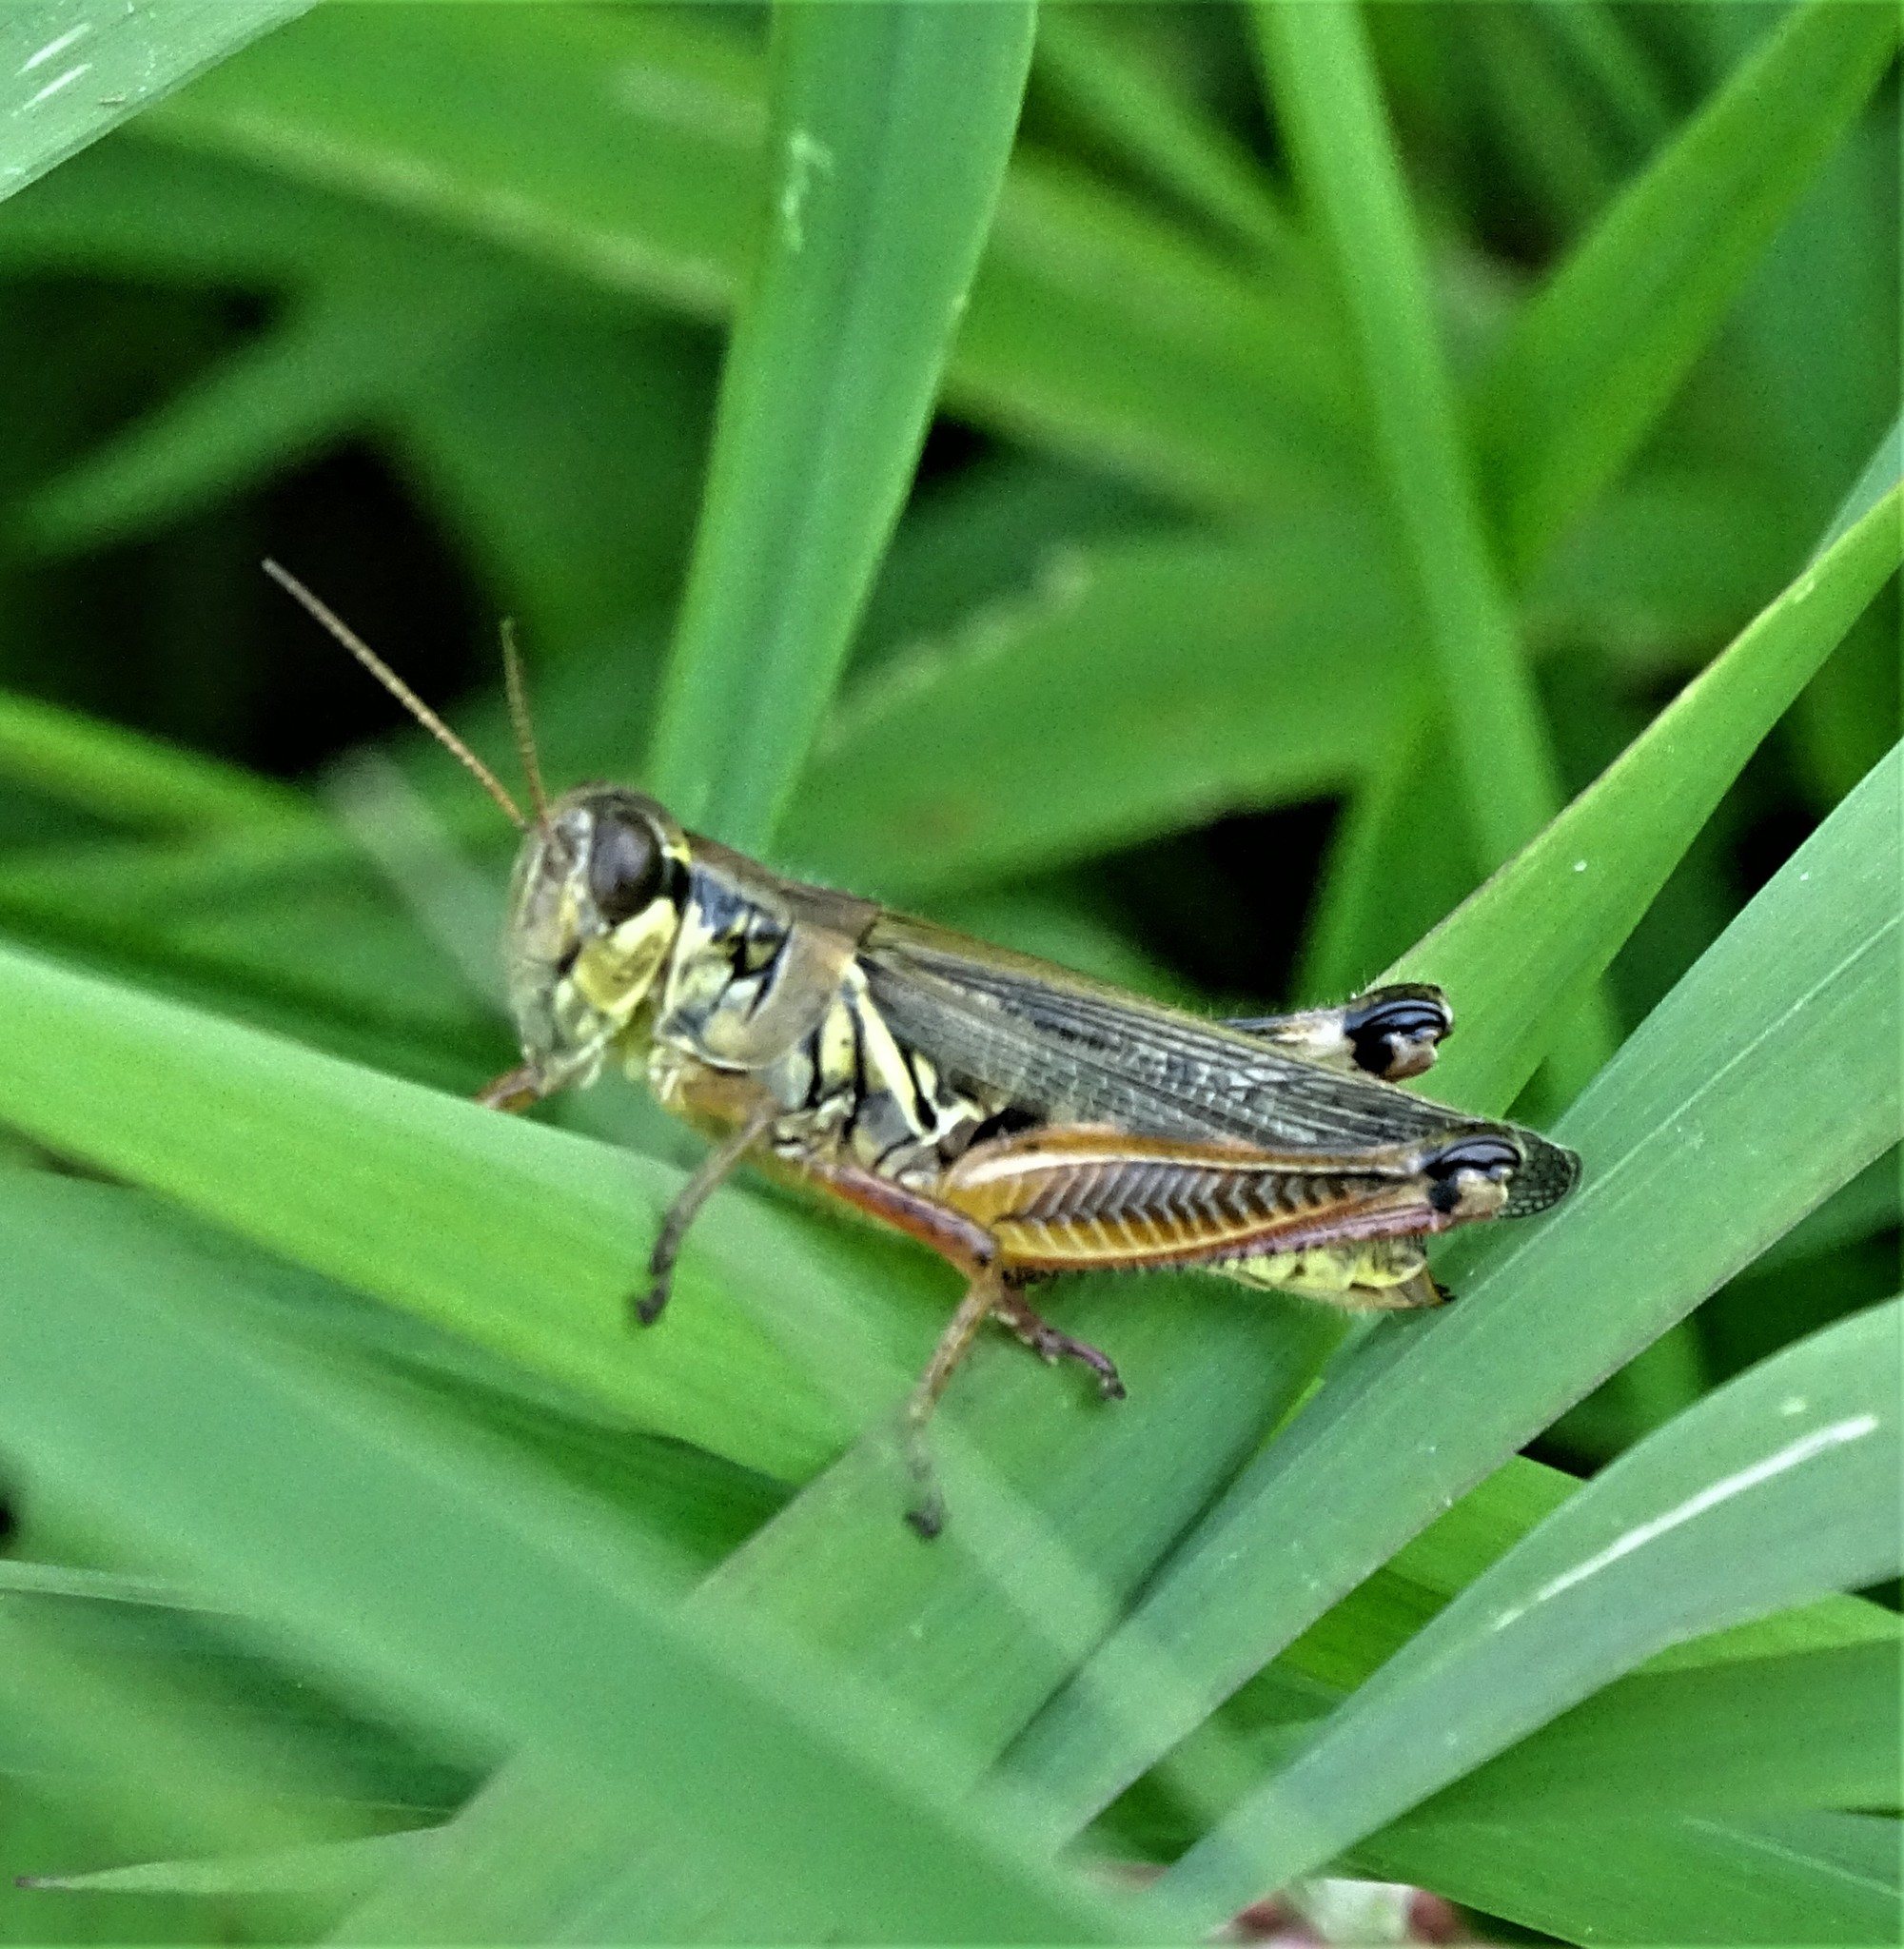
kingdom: Animalia
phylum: Arthropoda
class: Insecta
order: Orthoptera
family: Acrididae
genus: Melanoplus
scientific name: Melanoplus femurrubrum
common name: Red-legged grasshopper
